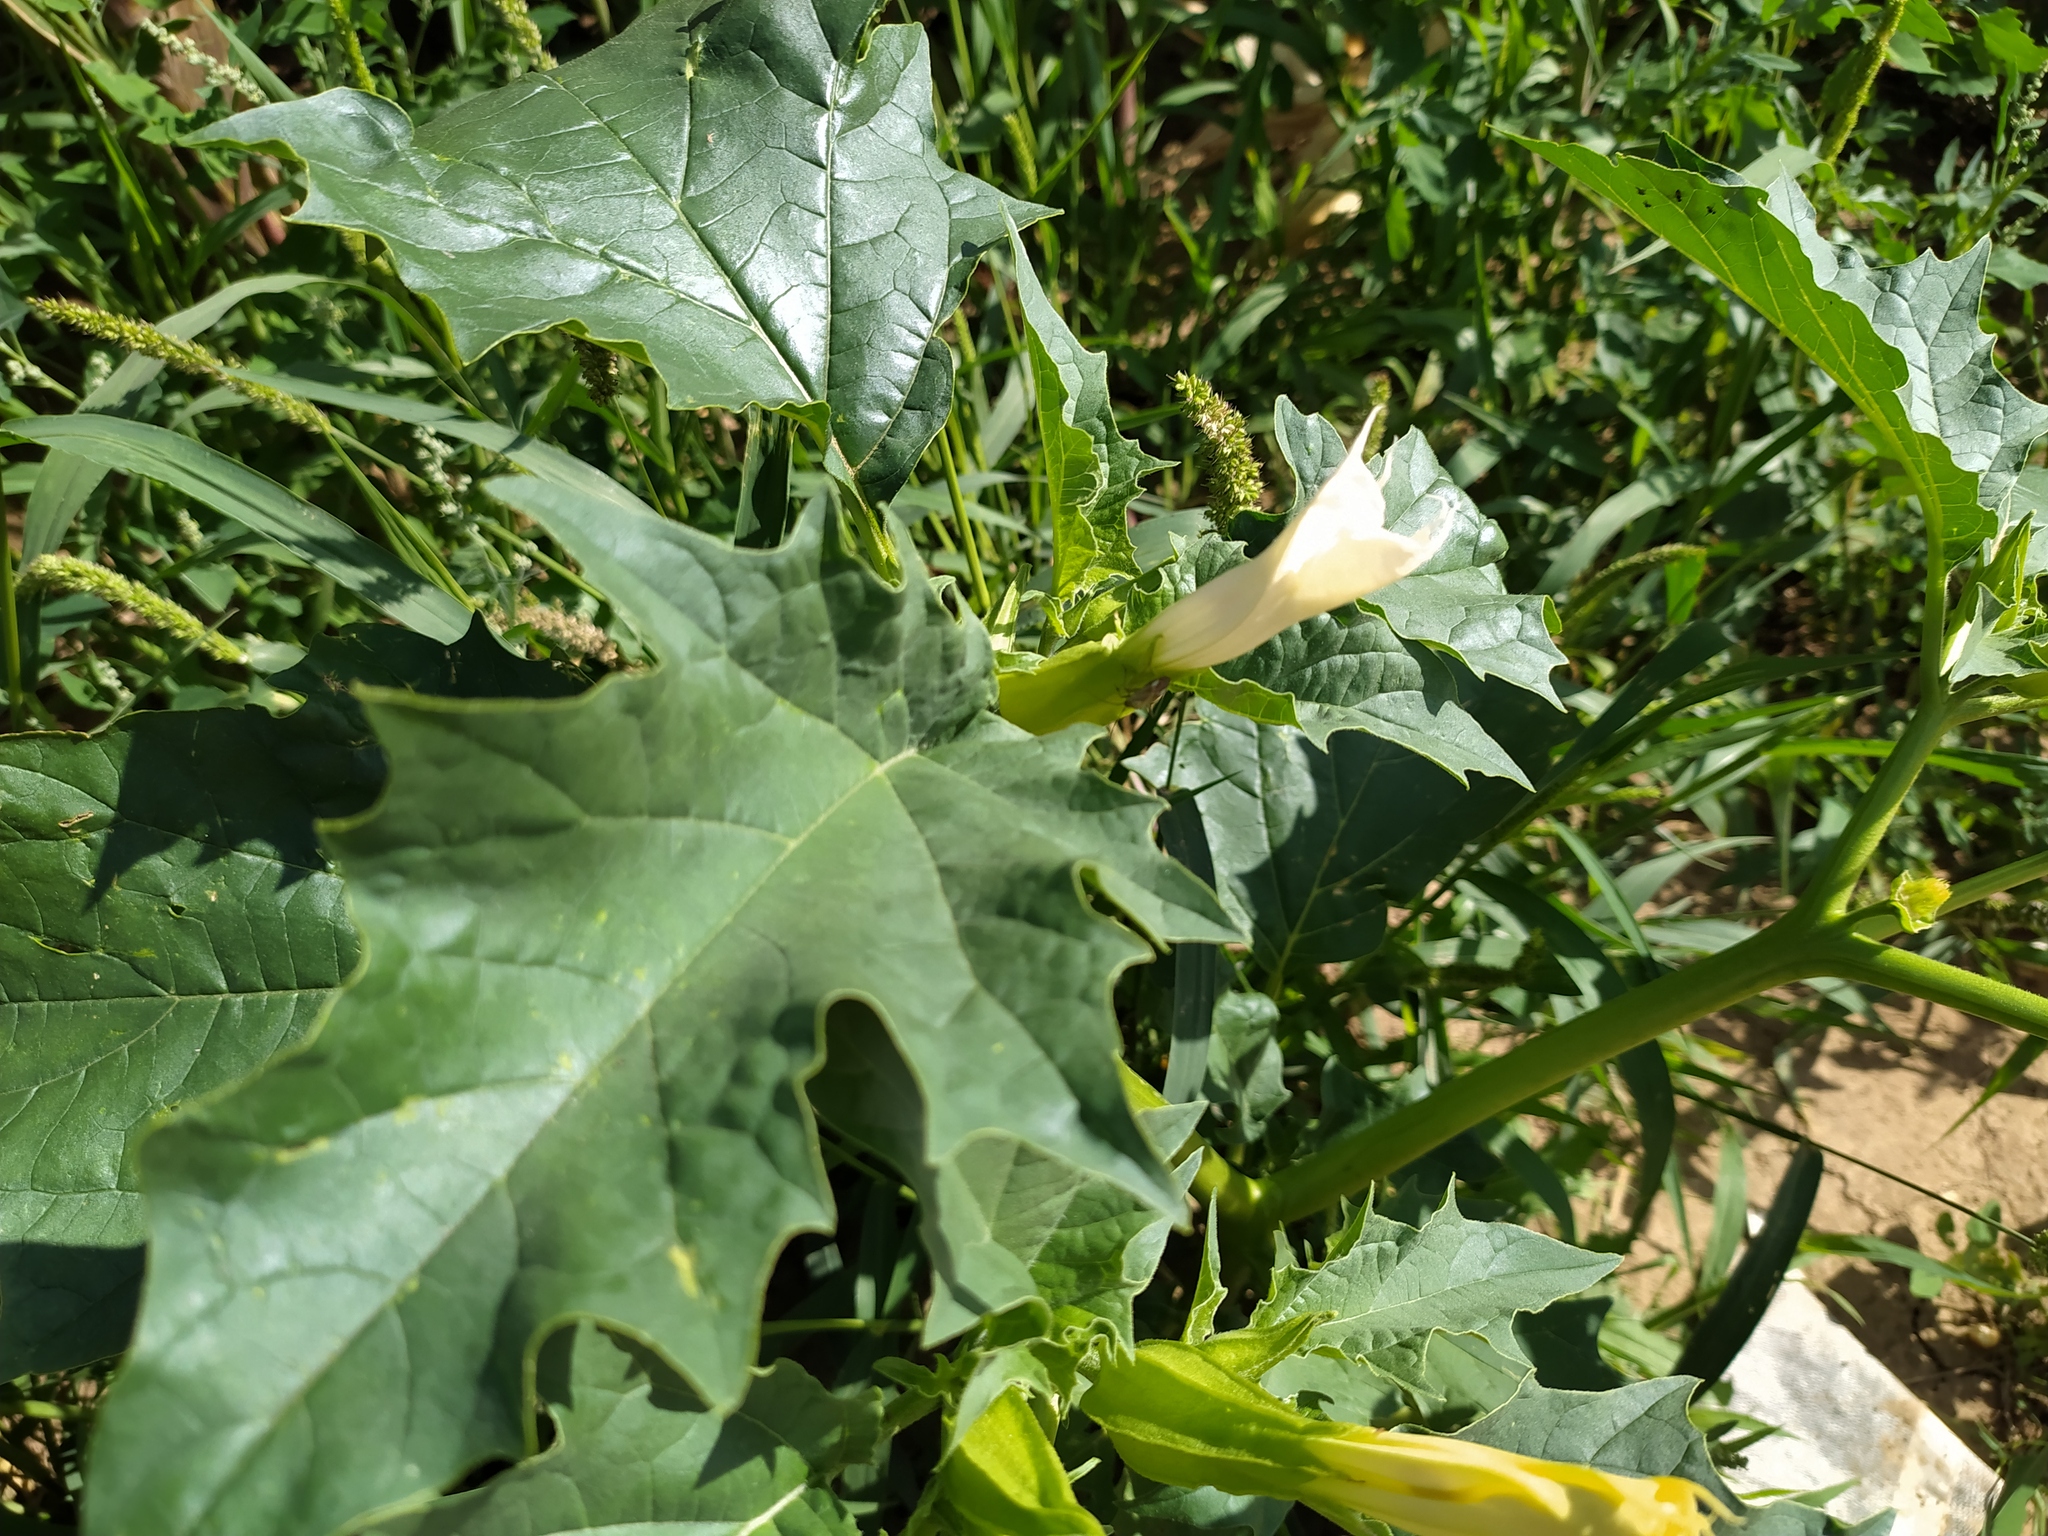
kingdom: Plantae
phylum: Tracheophyta
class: Magnoliopsida
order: Solanales
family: Solanaceae
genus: Datura
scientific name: Datura stramonium
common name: Thorn-apple
